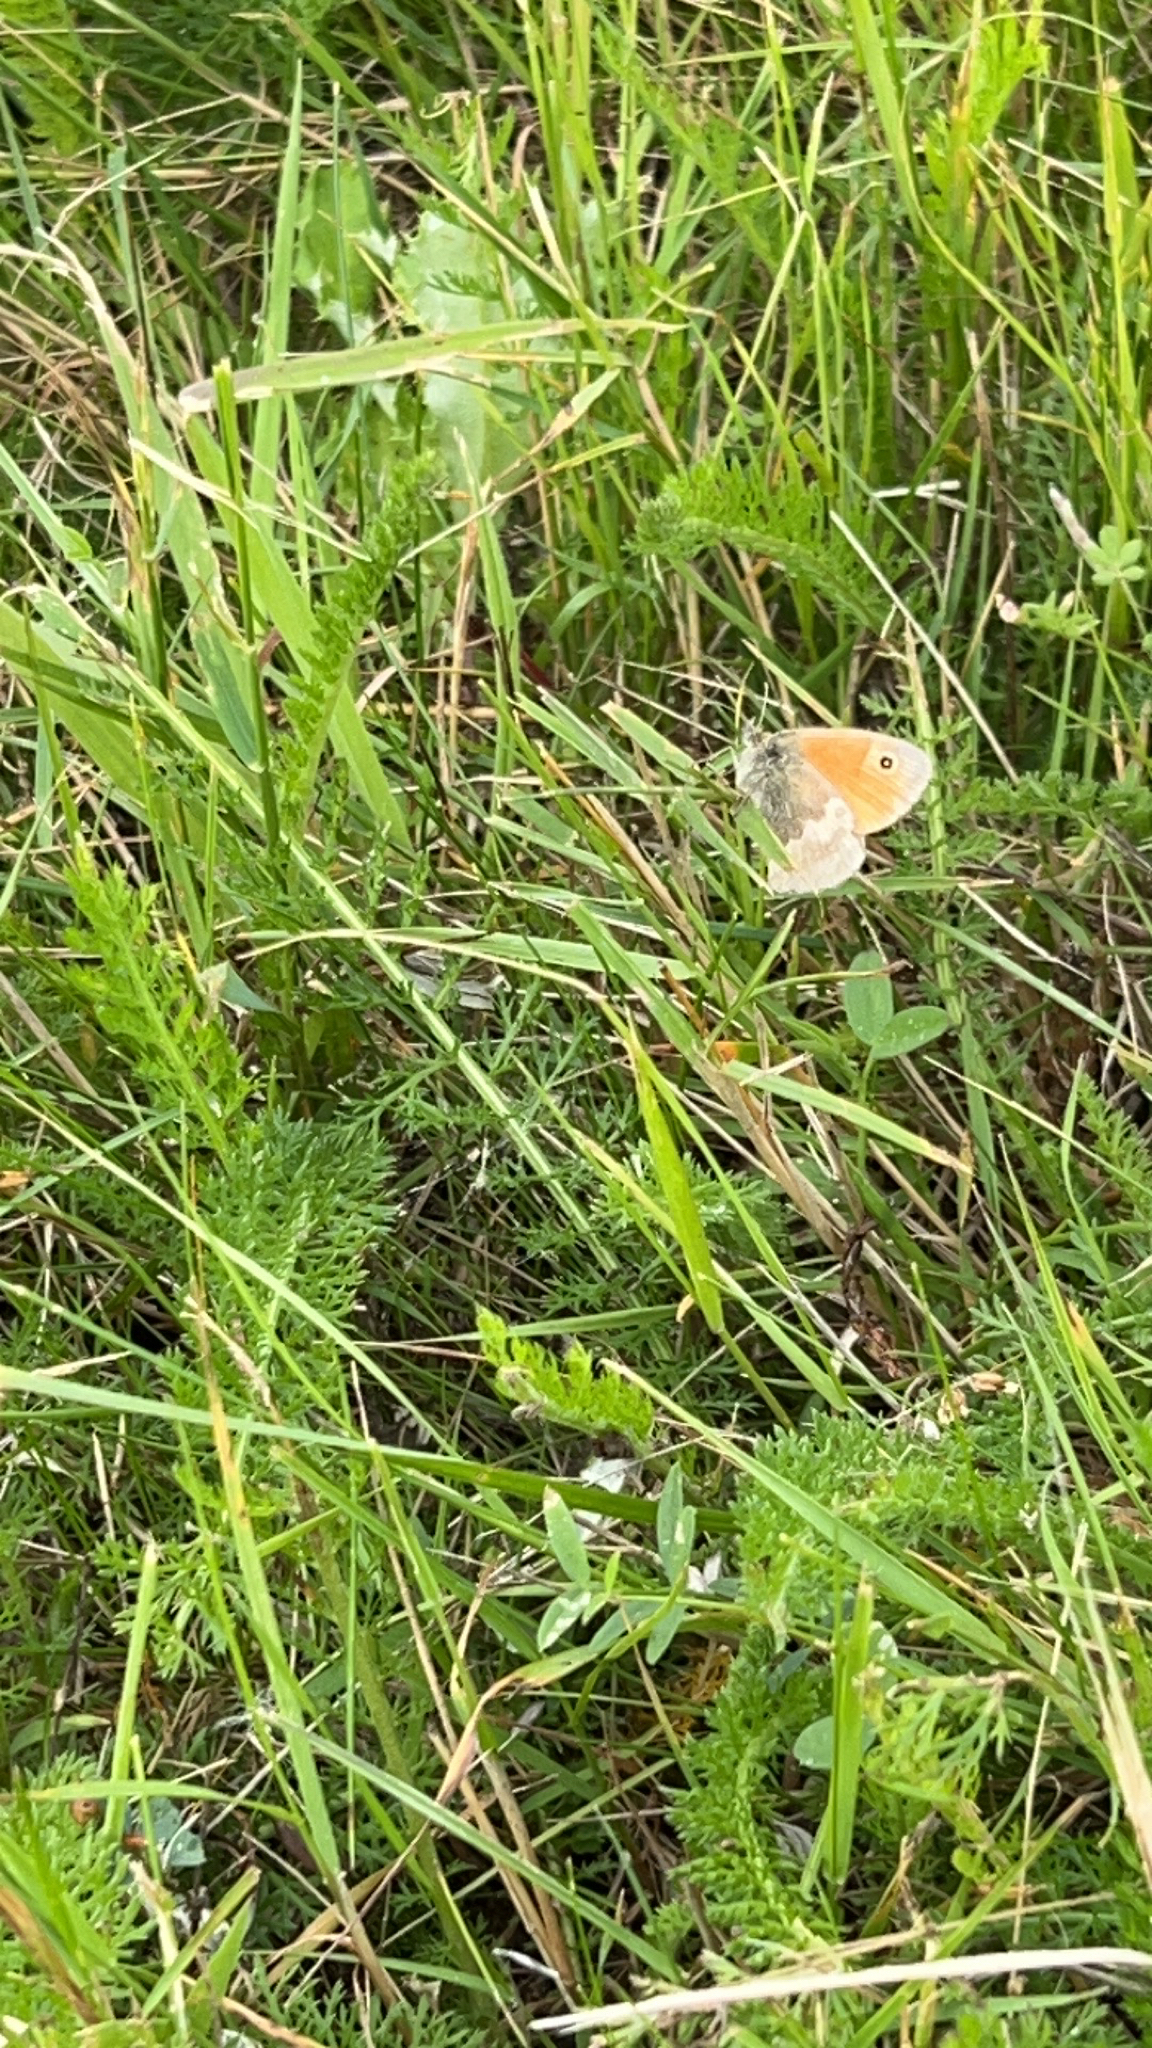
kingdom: Animalia
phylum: Arthropoda
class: Insecta
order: Lepidoptera
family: Nymphalidae
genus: Coenonympha
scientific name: Coenonympha pamphilus
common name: Small heath
